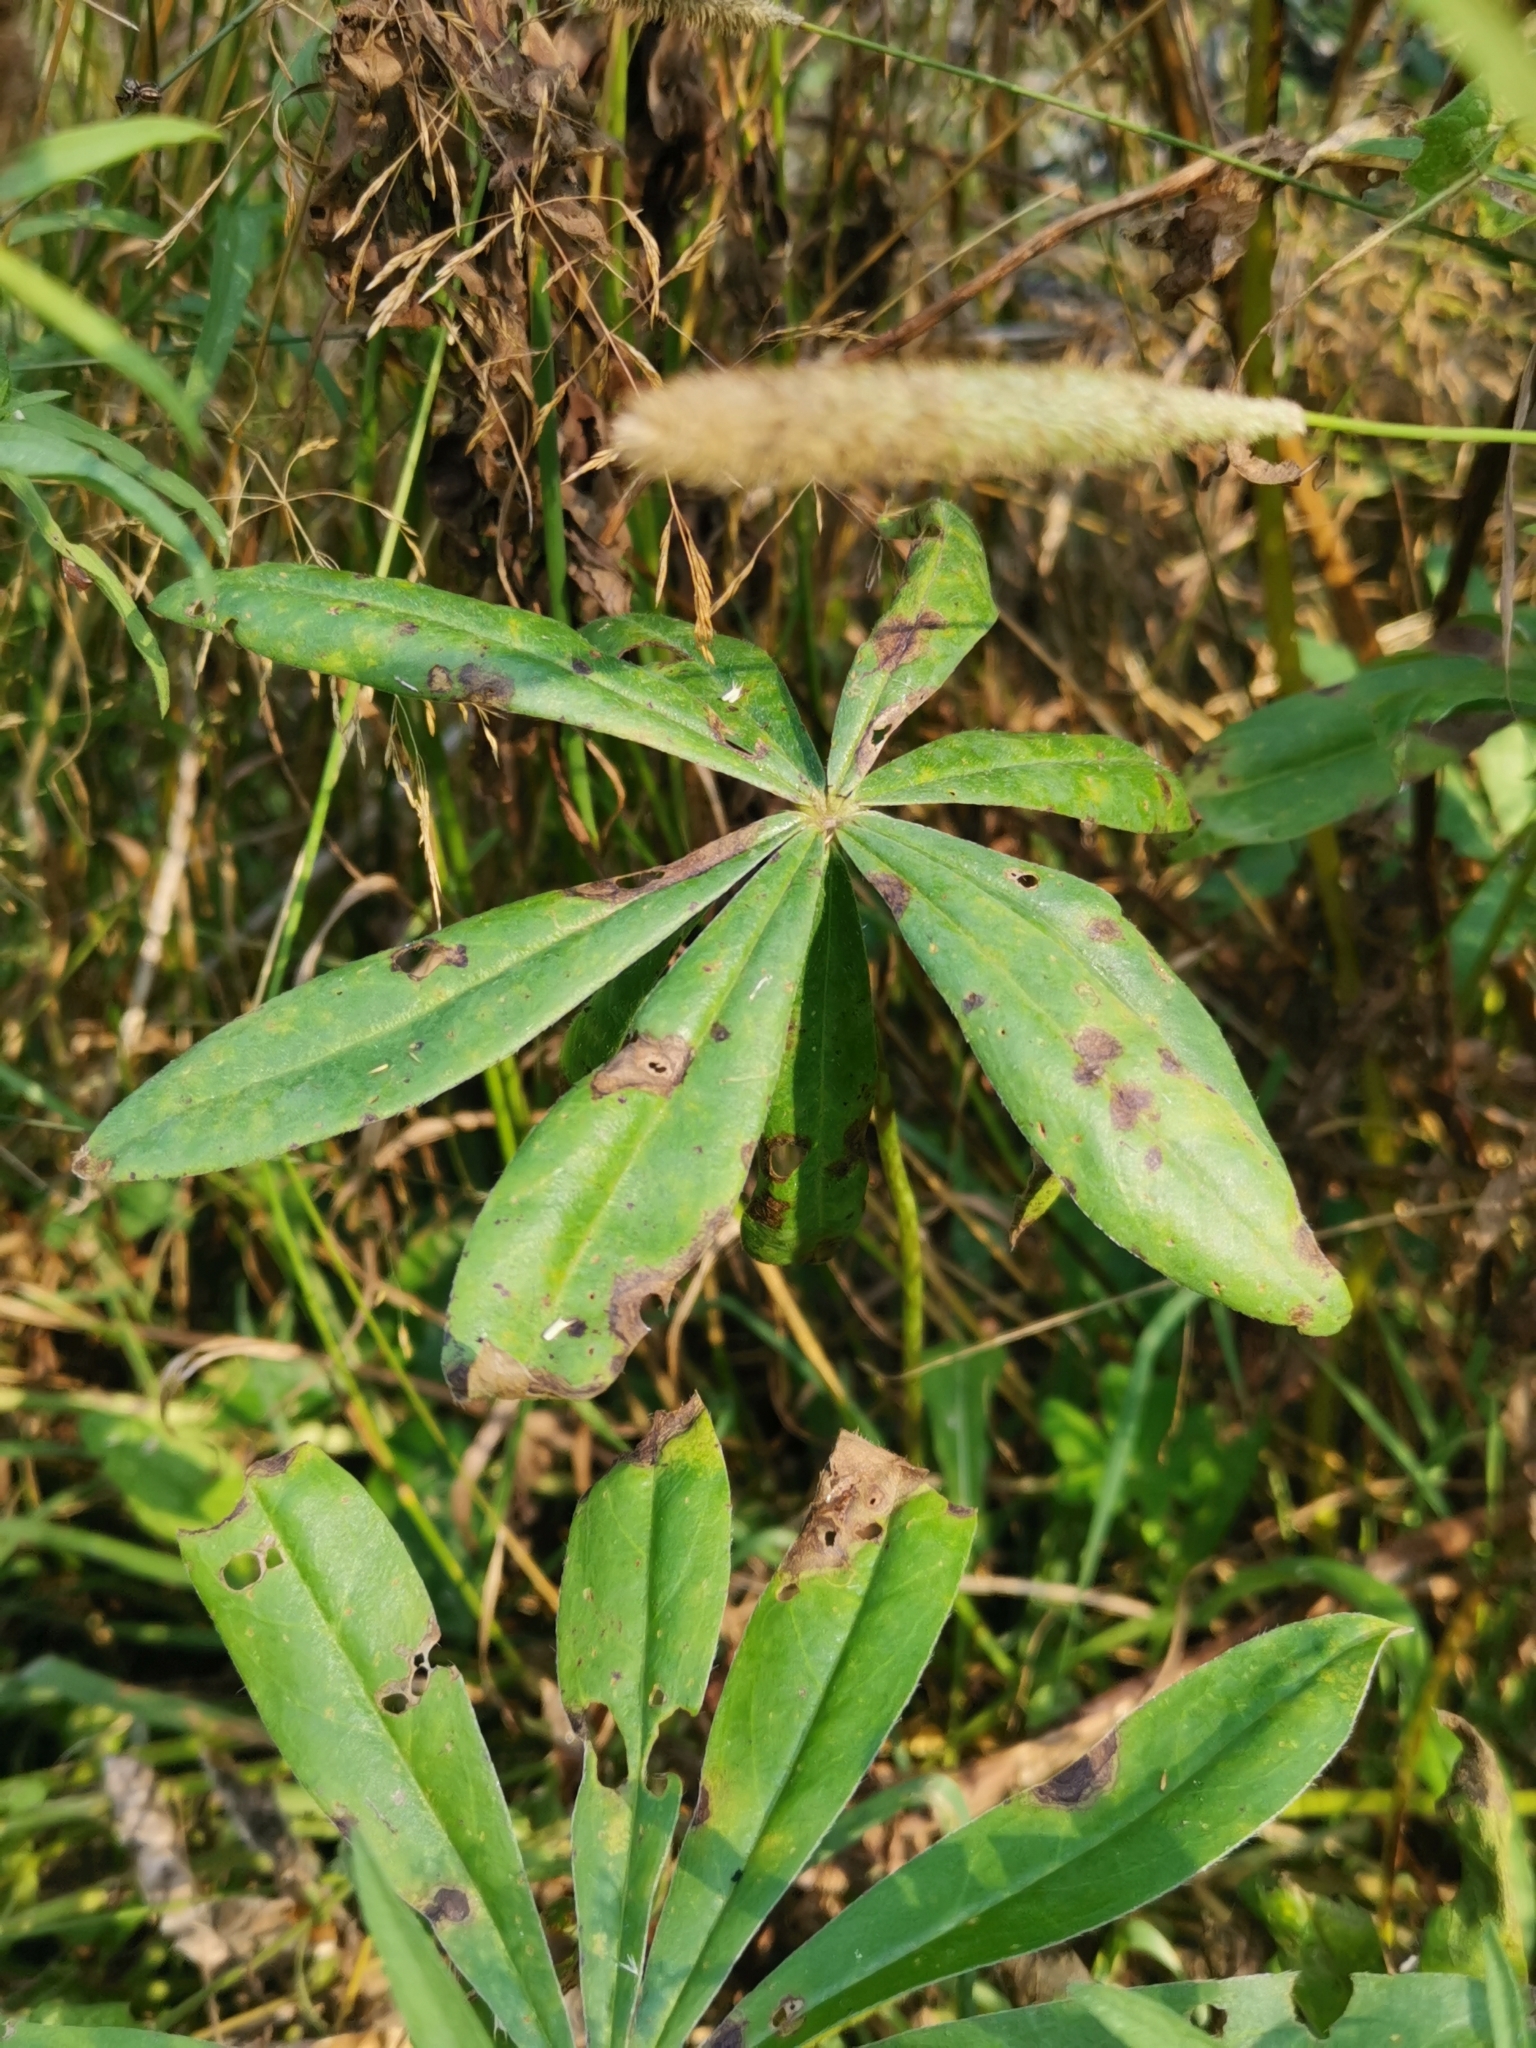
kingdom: Plantae
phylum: Tracheophyta
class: Magnoliopsida
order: Fabales
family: Fabaceae
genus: Lupinus
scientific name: Lupinus polyphyllus
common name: Garden lupin
